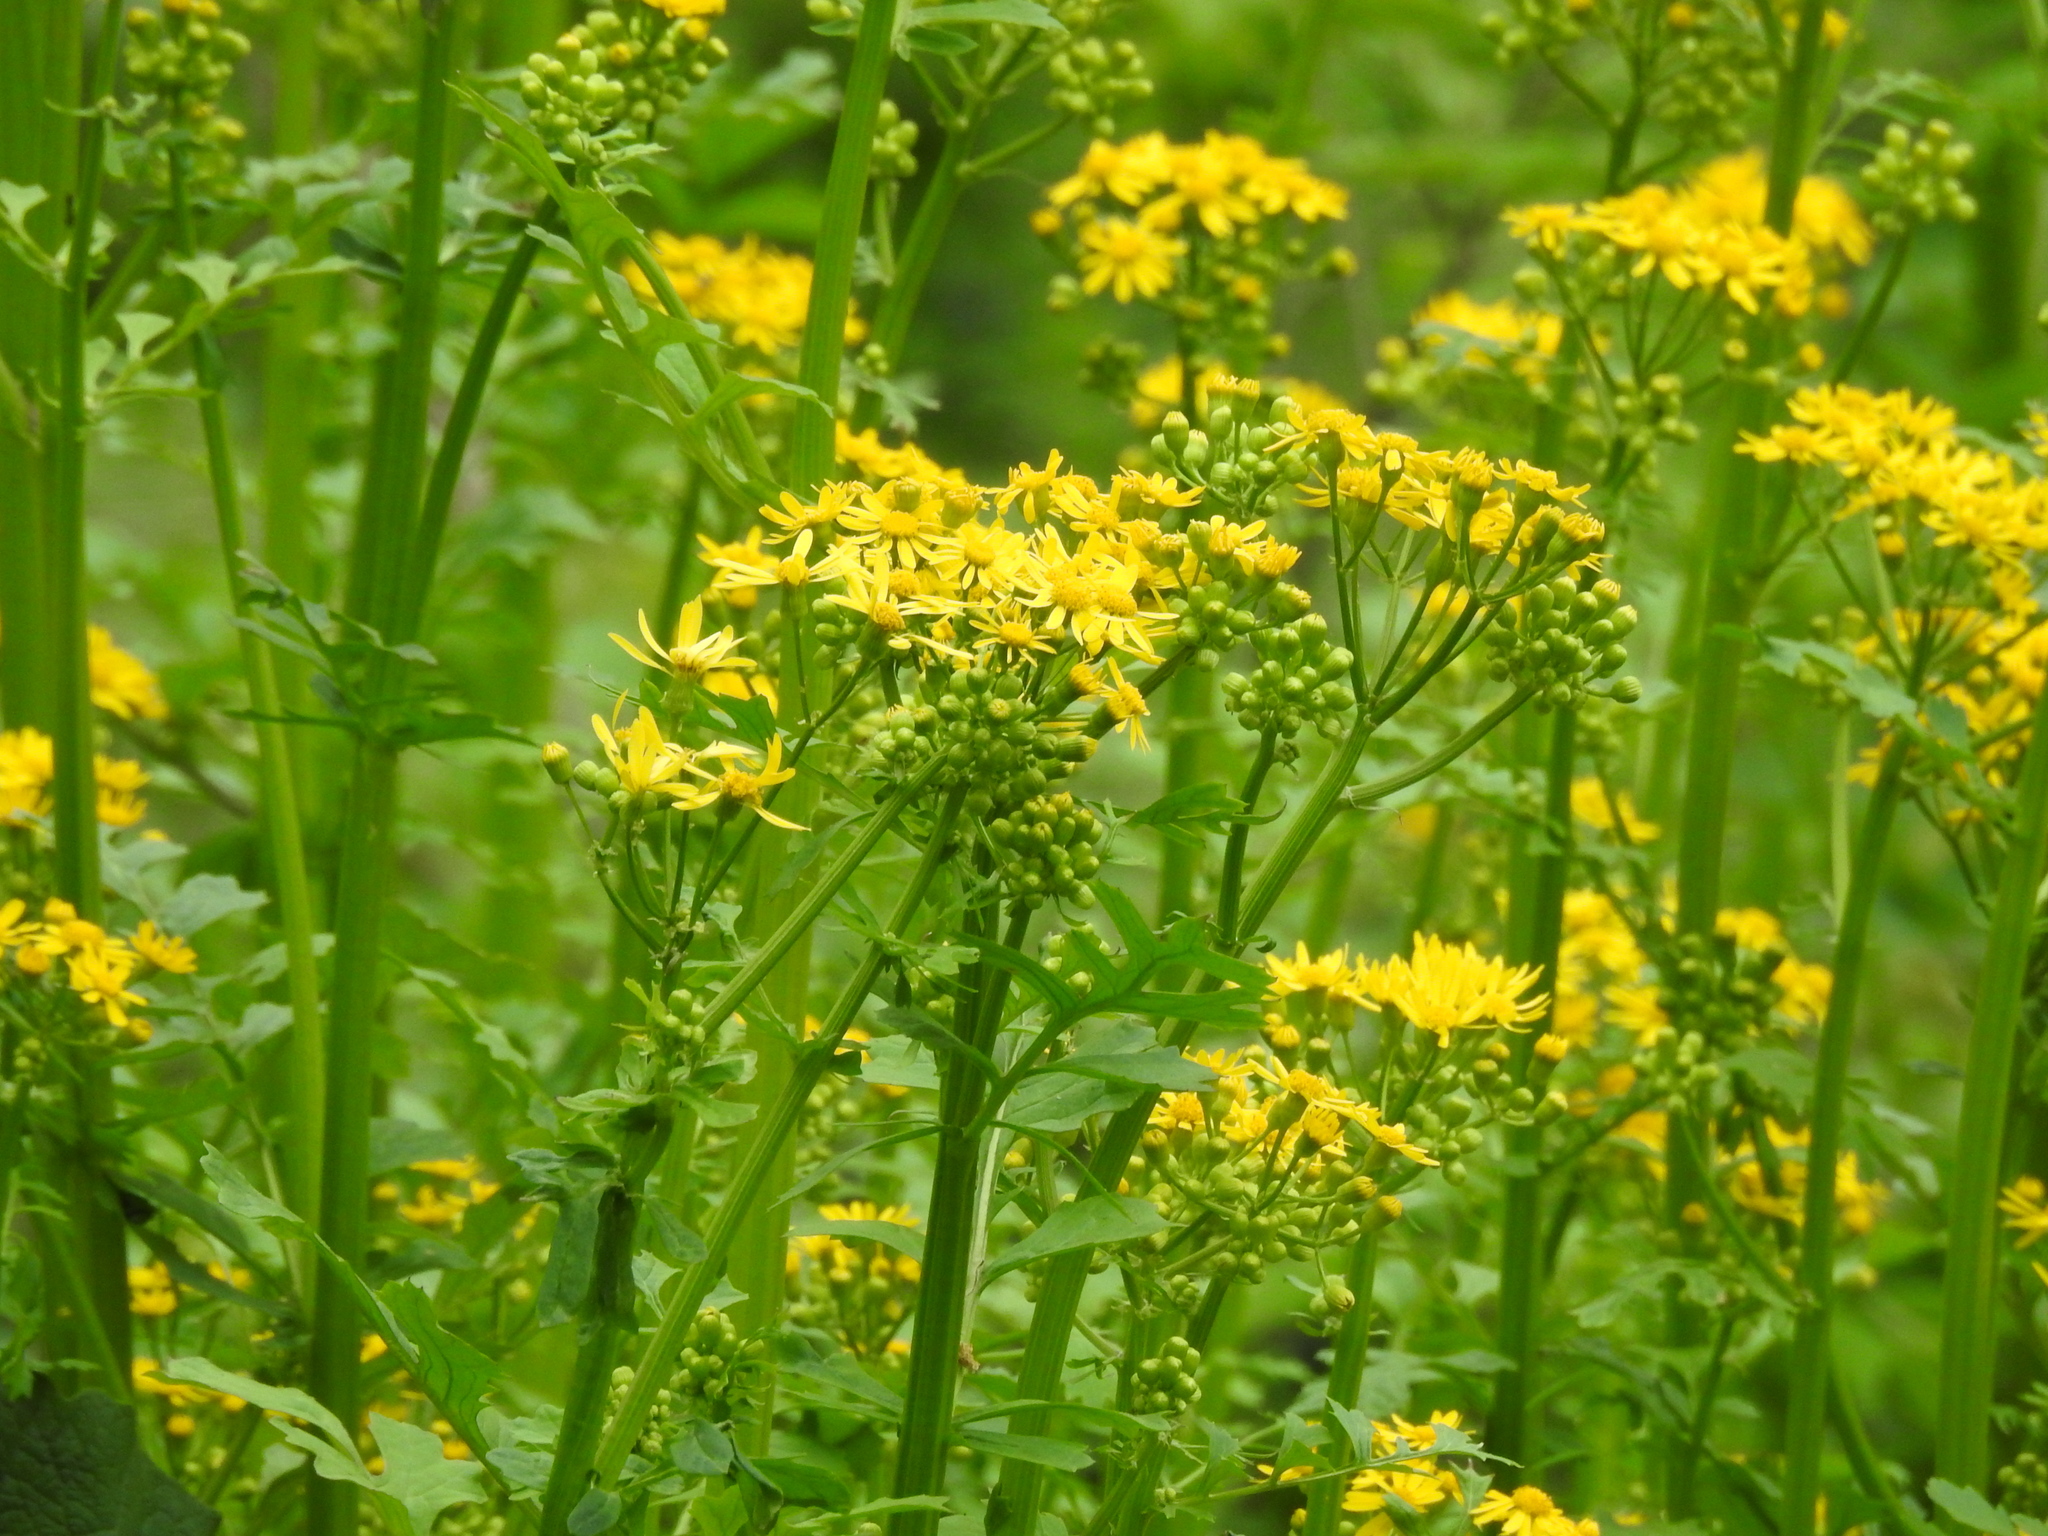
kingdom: Plantae
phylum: Tracheophyta
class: Magnoliopsida
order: Asterales
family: Asteraceae
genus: Packera
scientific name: Packera glabella
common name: Butterweed
